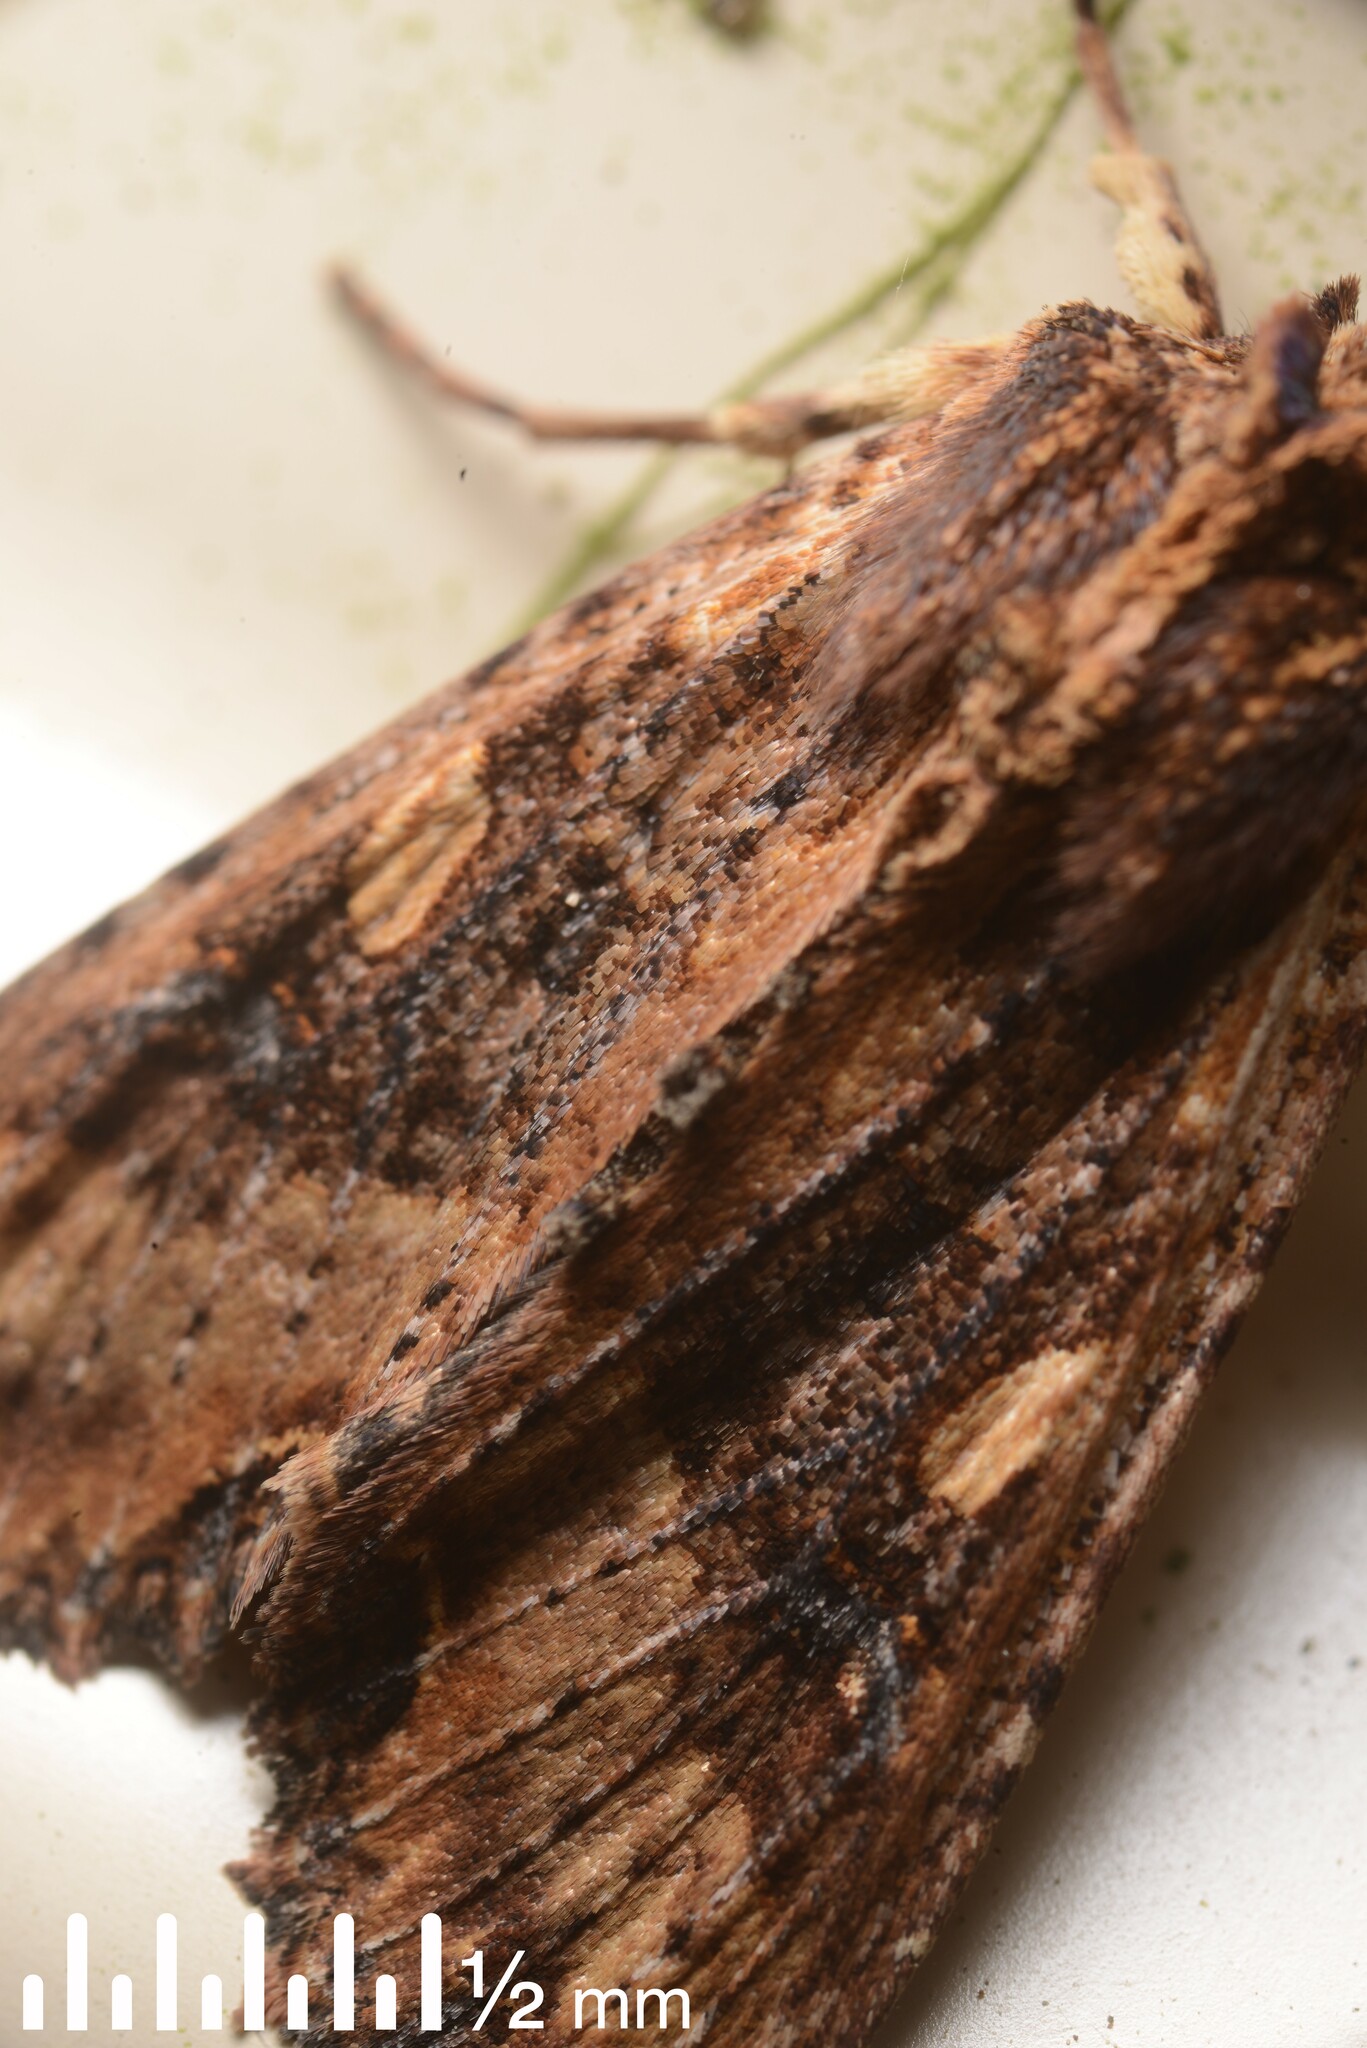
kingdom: Animalia
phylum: Arthropoda
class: Insecta
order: Lepidoptera
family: Noctuidae
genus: Meterana
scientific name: Meterana stipata
